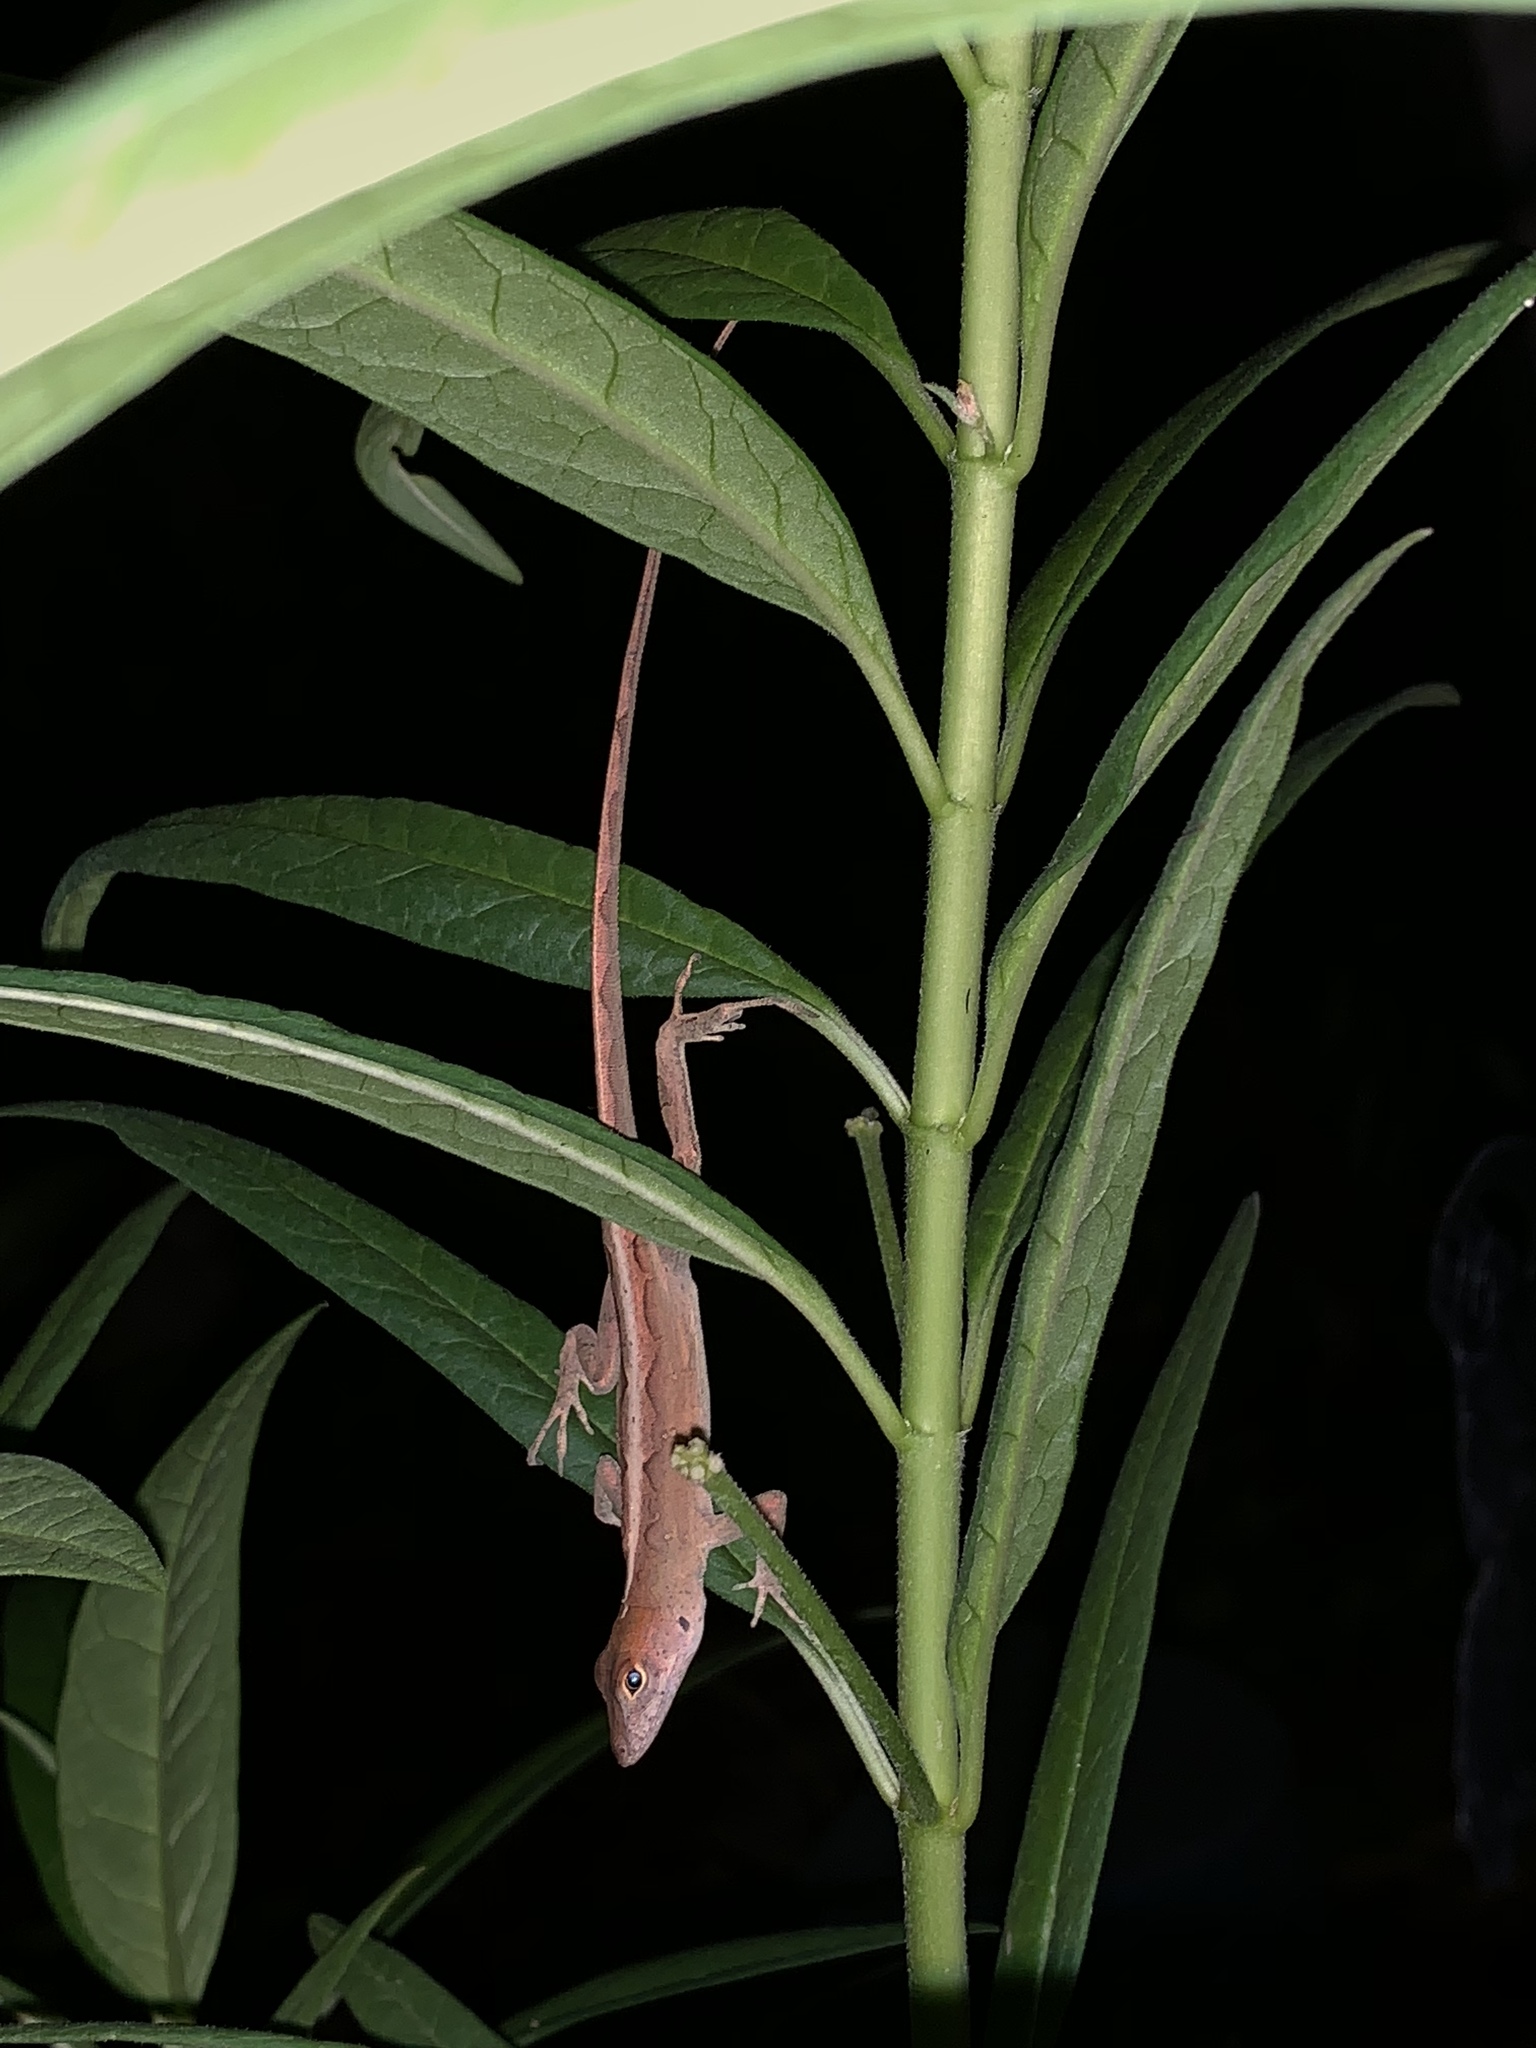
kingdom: Animalia
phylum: Chordata
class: Squamata
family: Dactyloidae
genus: Anolis
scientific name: Anolis sagrei
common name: Brown anole
